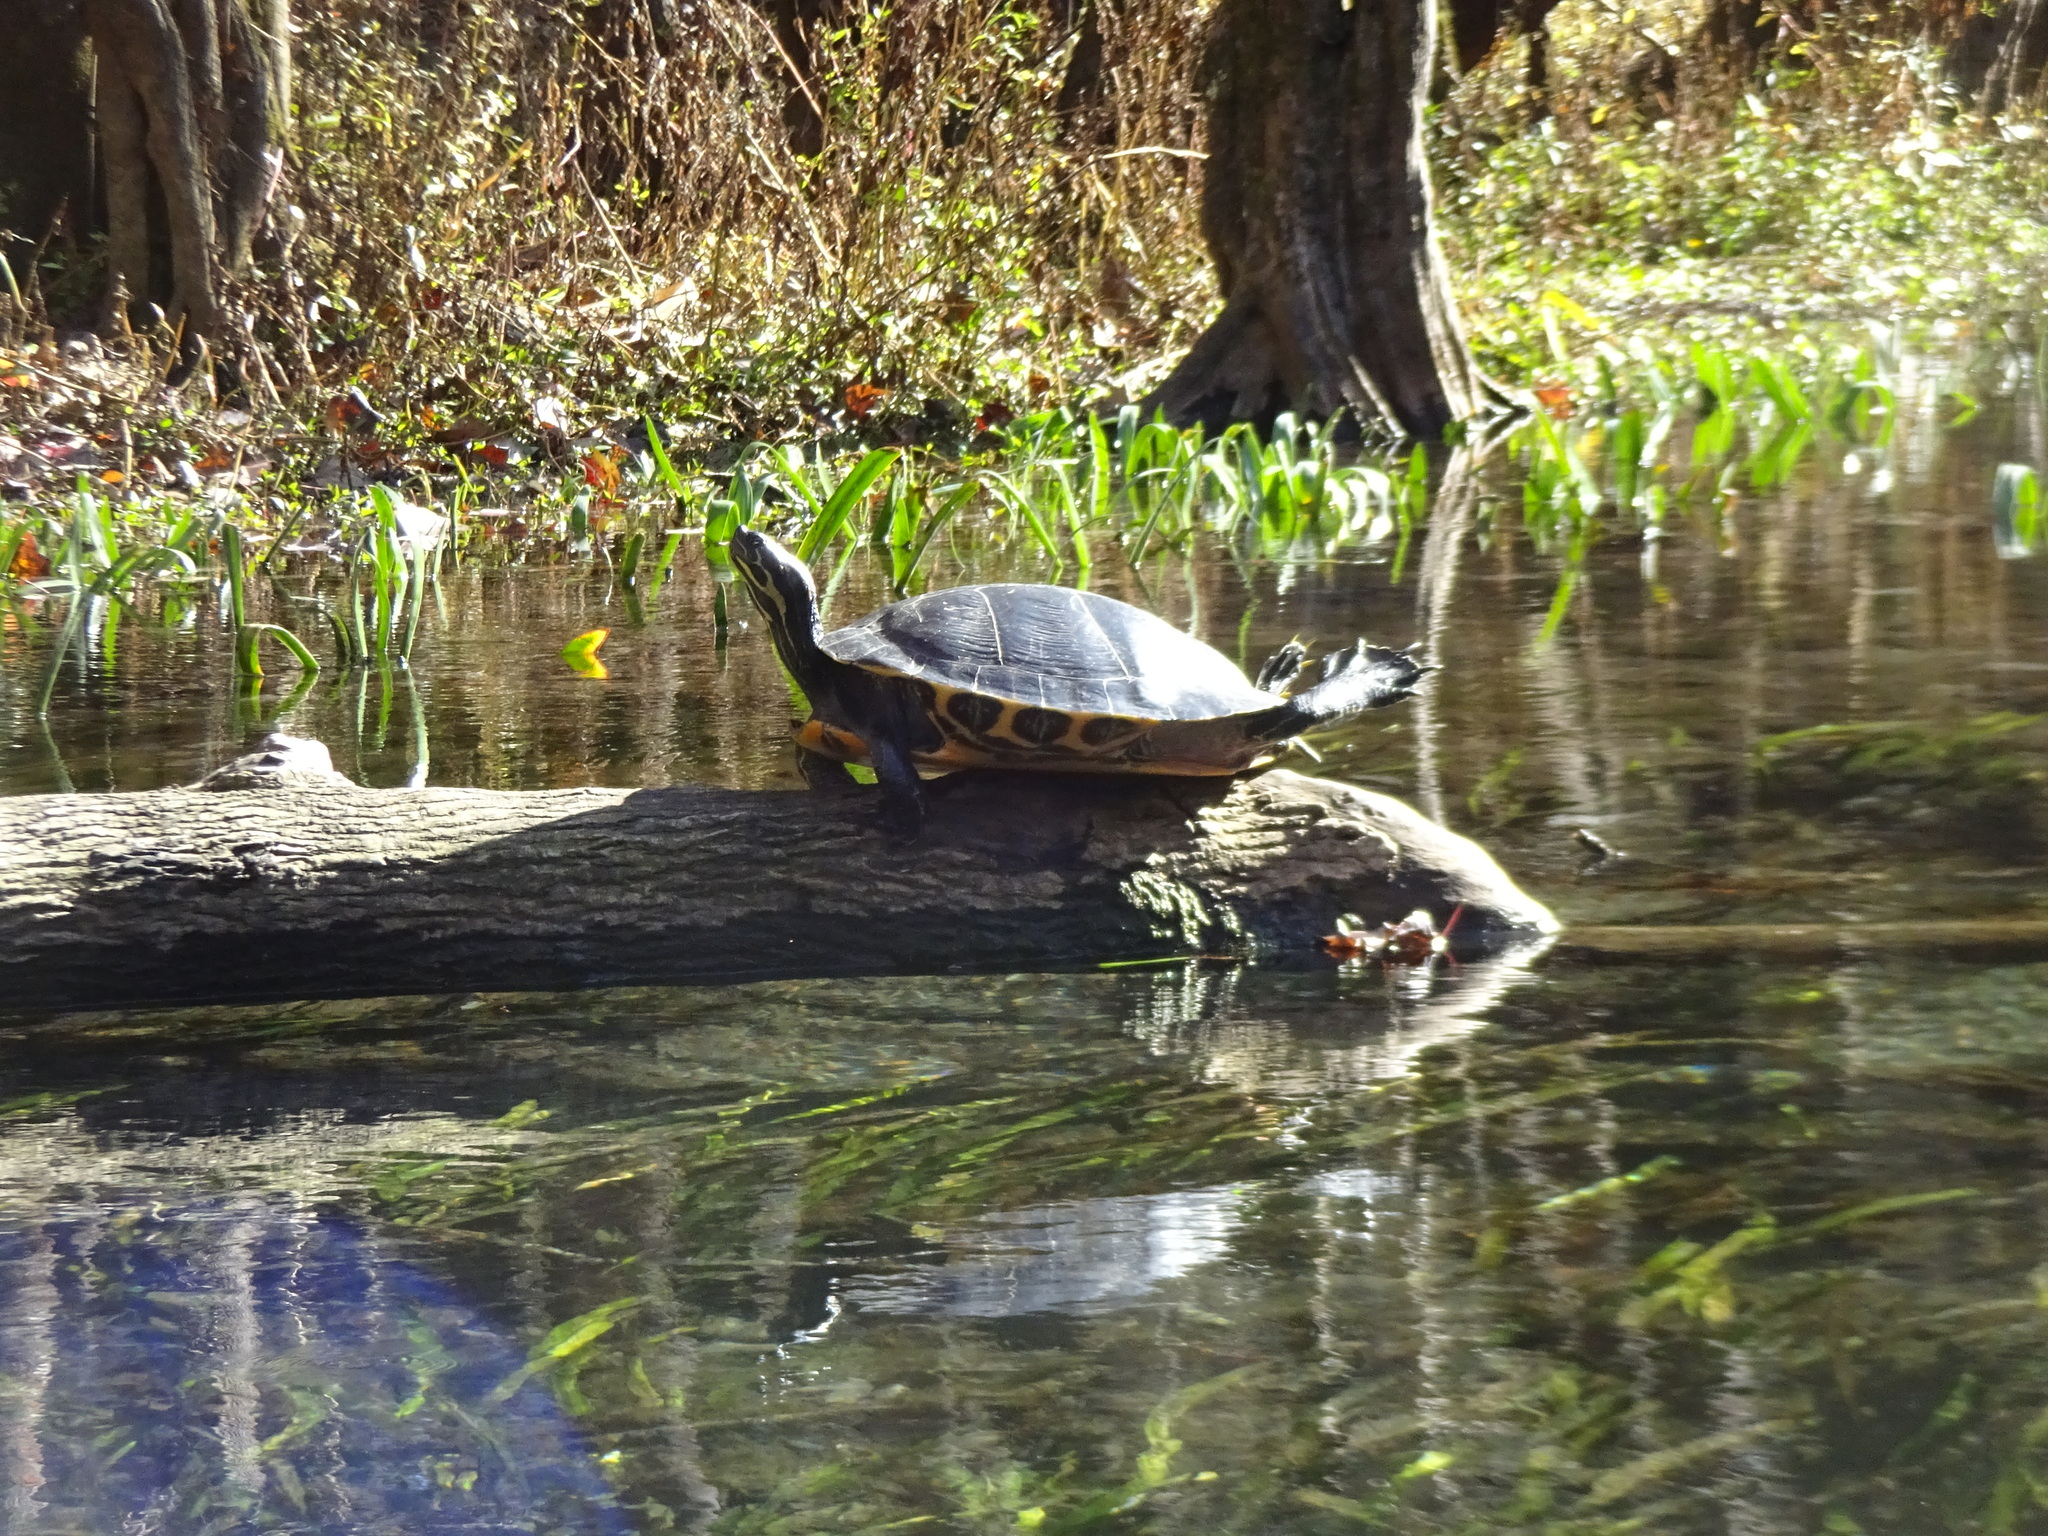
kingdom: Animalia
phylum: Chordata
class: Testudines
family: Emydidae
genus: Pseudemys
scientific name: Pseudemys concinna
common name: Eastern river cooter
